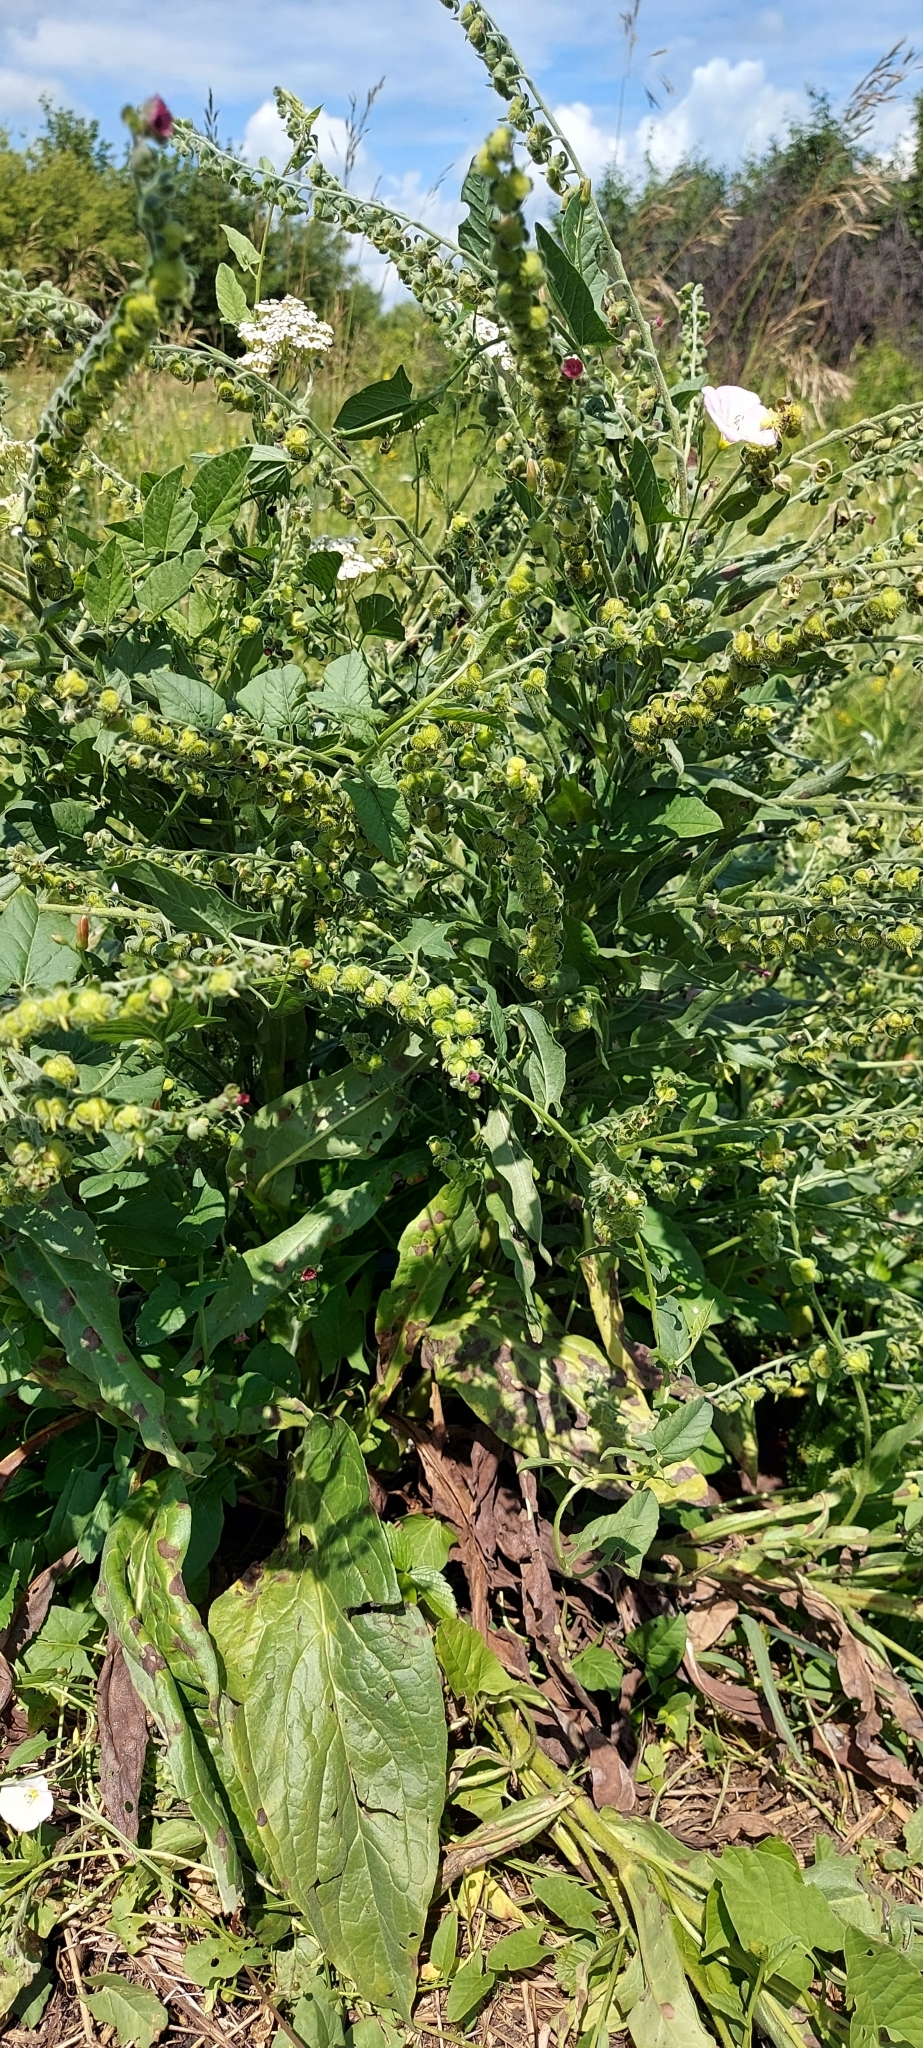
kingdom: Plantae
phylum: Tracheophyta
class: Magnoliopsida
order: Boraginales
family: Boraginaceae
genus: Cynoglossum
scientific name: Cynoglossum officinale
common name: Hound's-tongue
